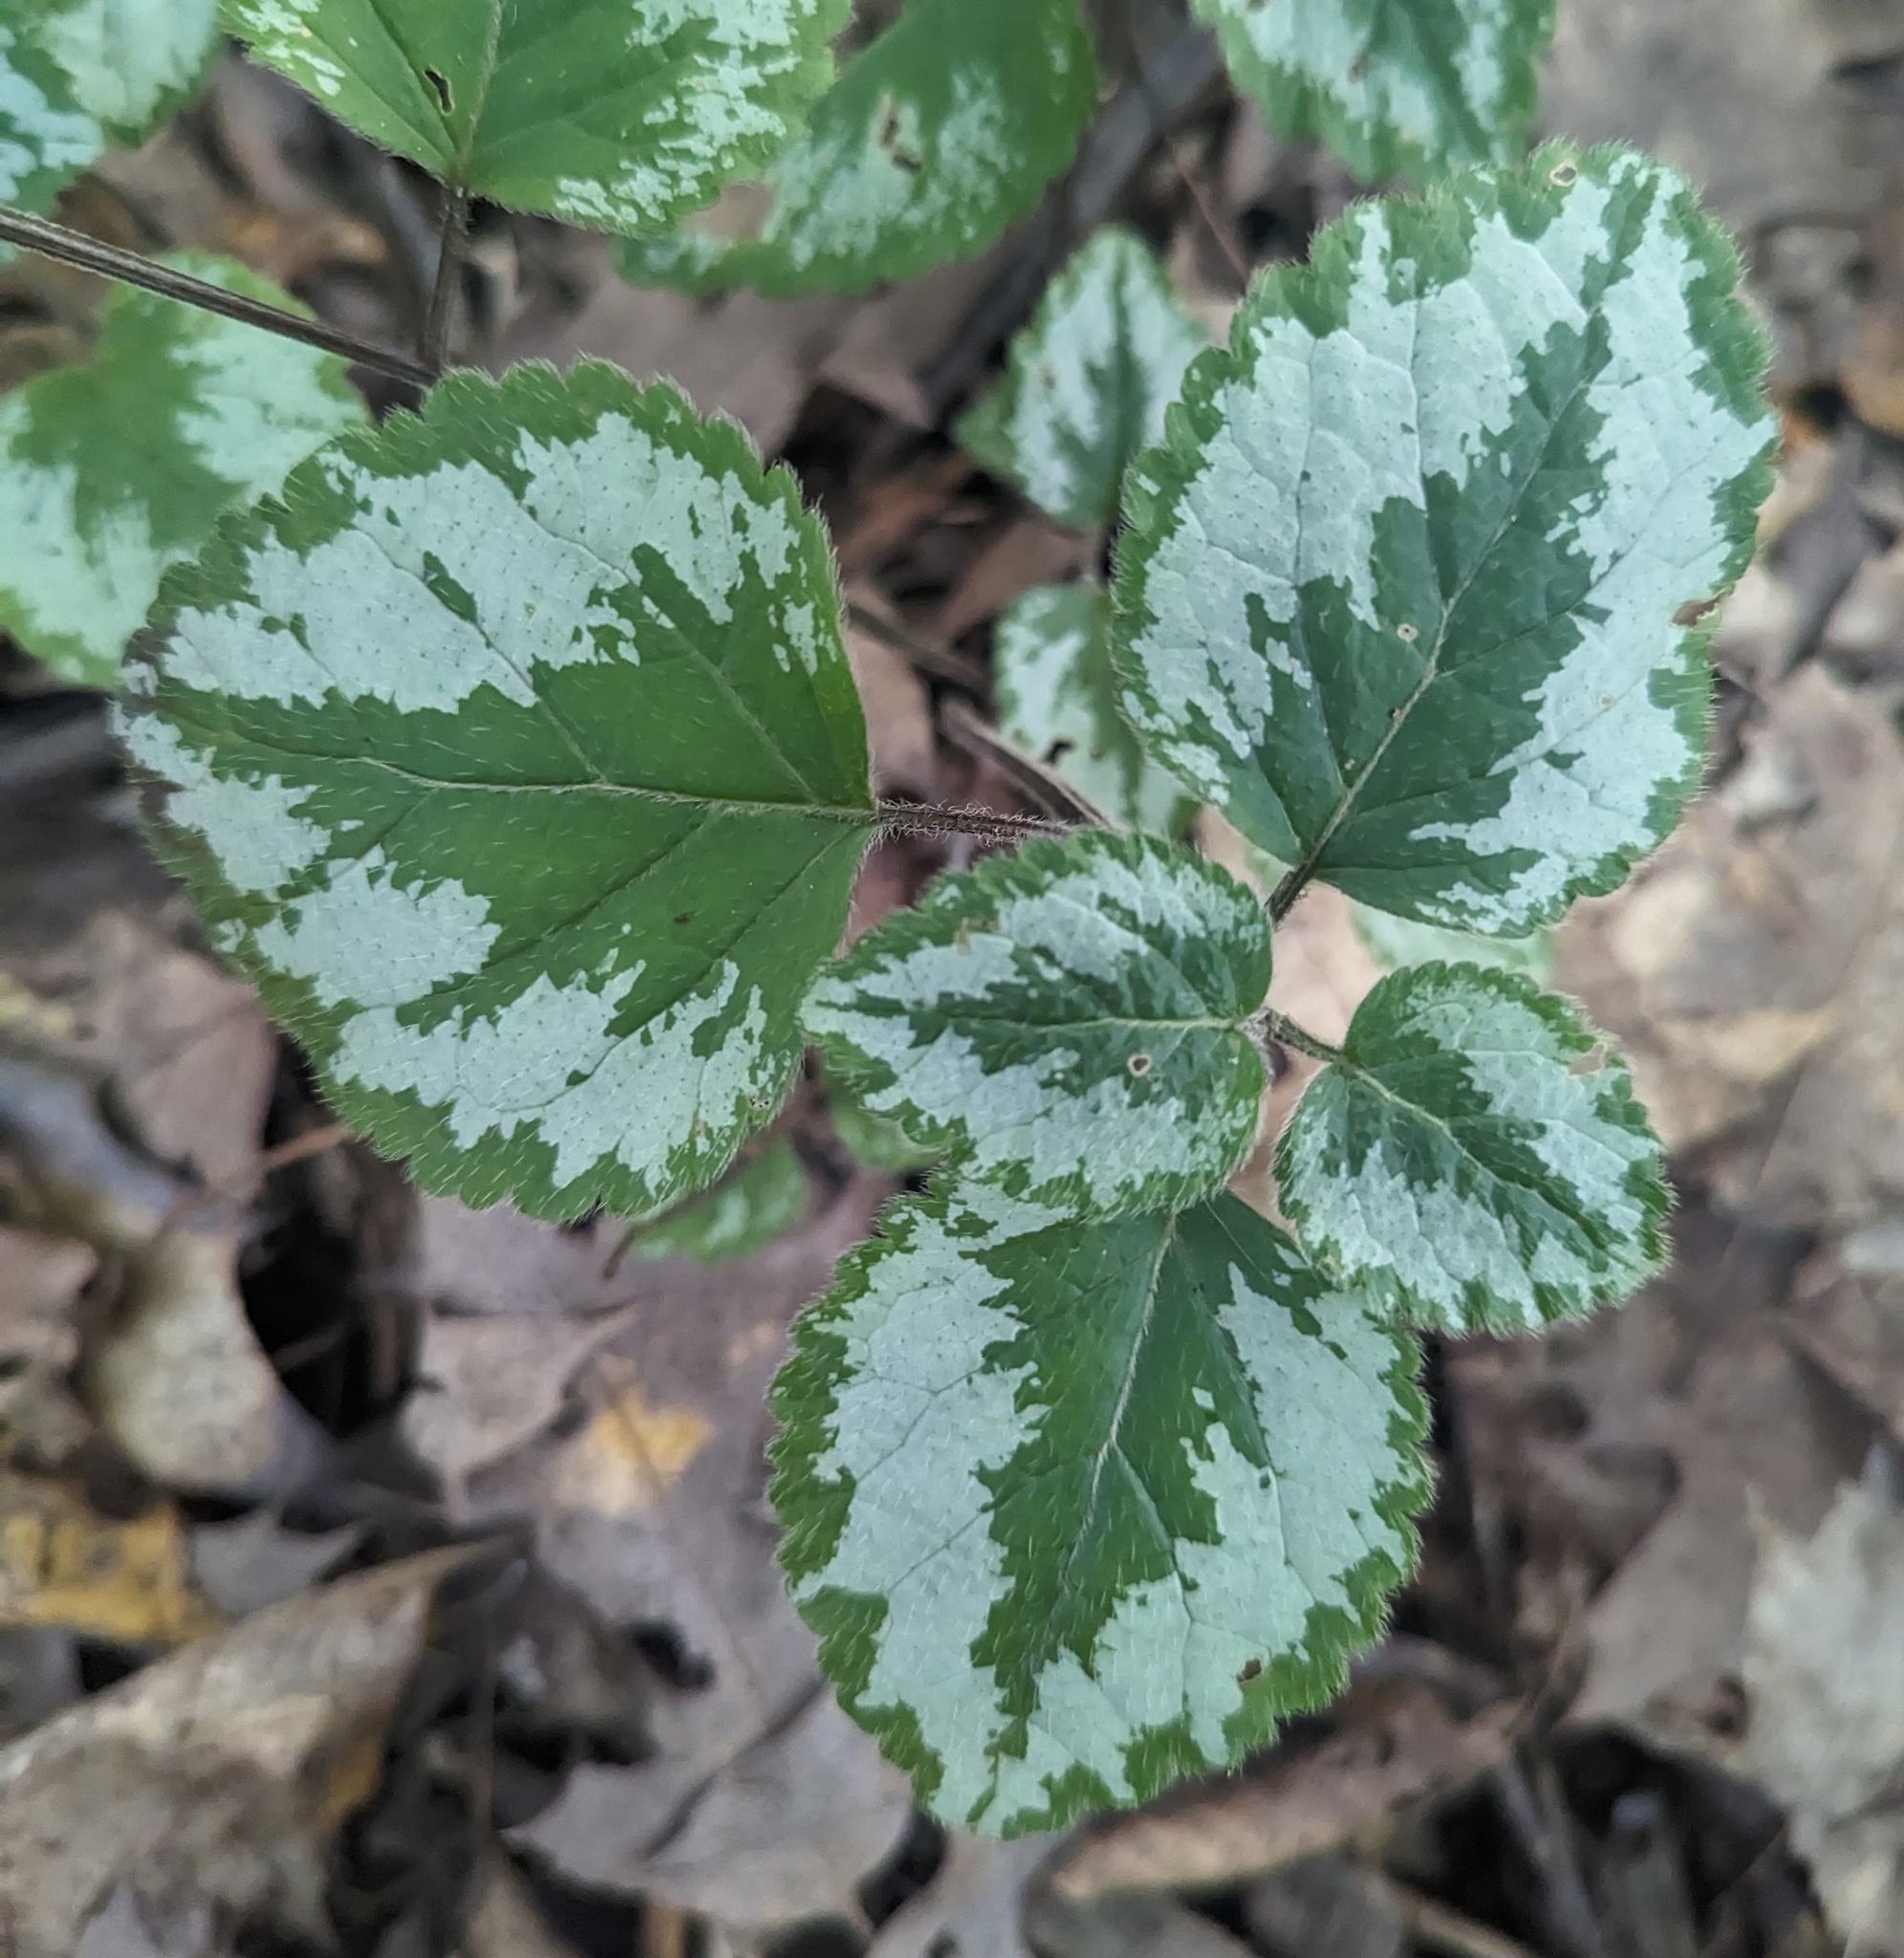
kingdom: Plantae
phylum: Tracheophyta
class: Magnoliopsida
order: Lamiales
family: Lamiaceae
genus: Lamium
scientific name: Lamium galeobdolon
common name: Yellow archangel
